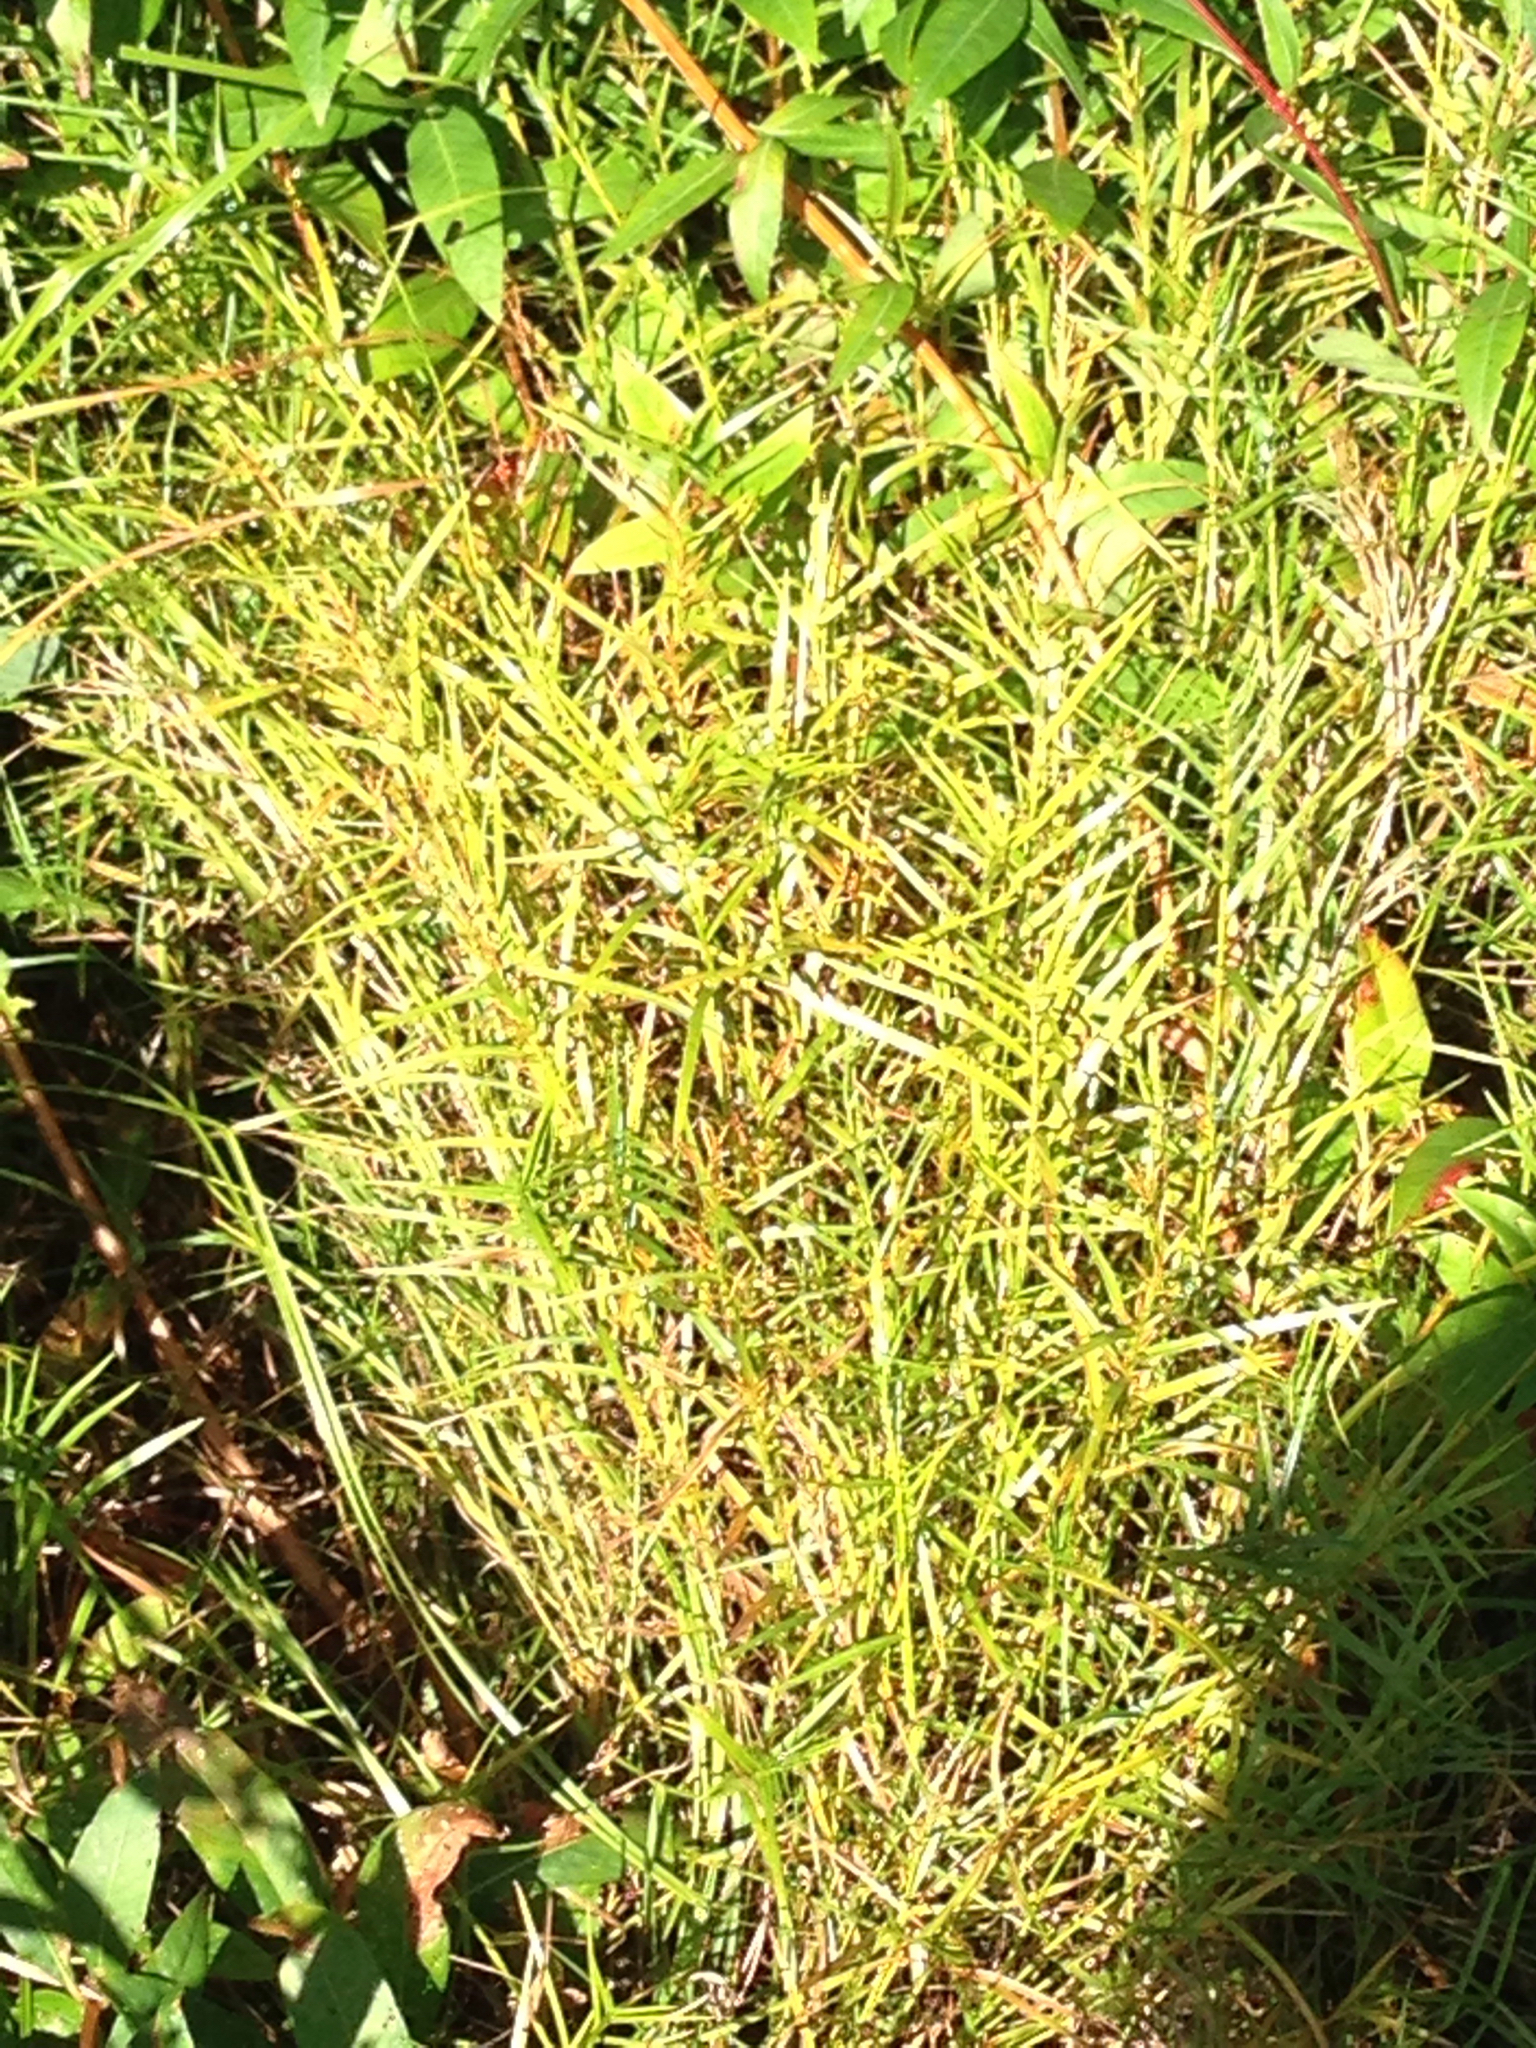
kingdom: Plantae
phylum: Tracheophyta
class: Liliopsida
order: Poales
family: Cyperaceae
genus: Dulichium
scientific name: Dulichium arundinaceum
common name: Three-way sedge
